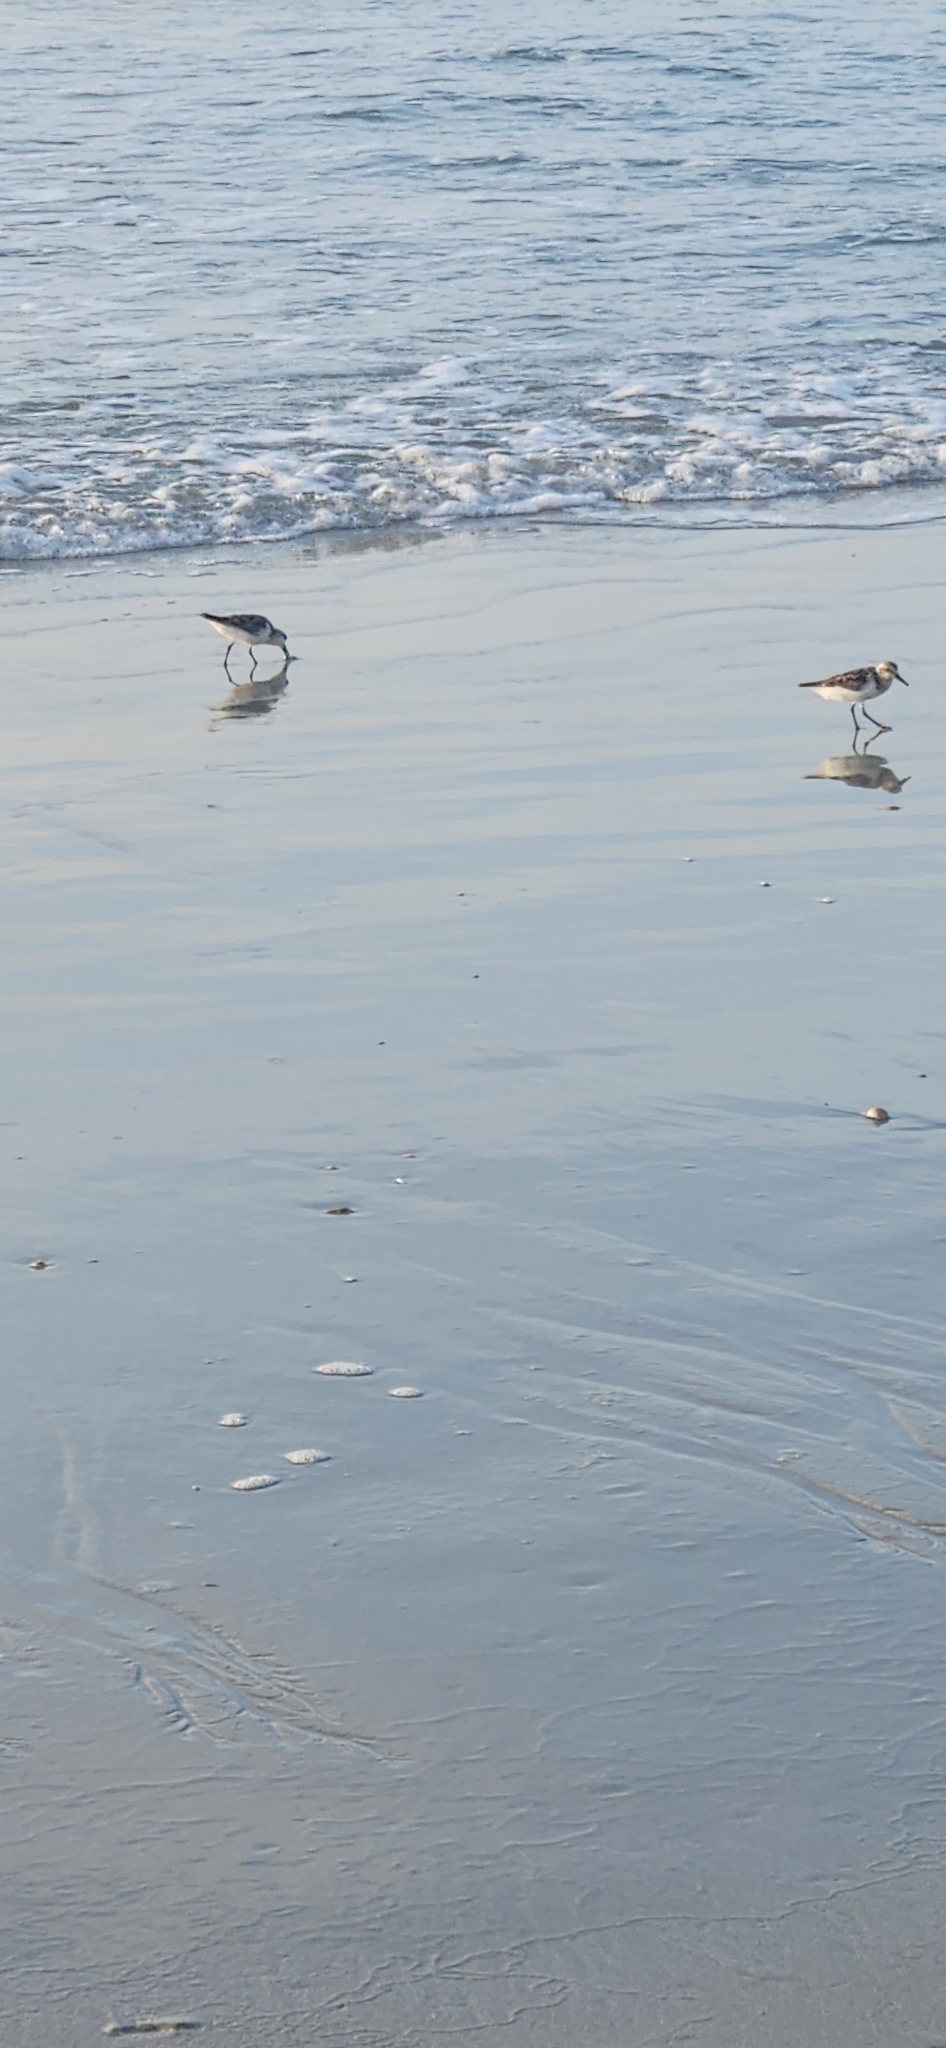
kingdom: Animalia
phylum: Chordata
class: Aves
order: Charadriiformes
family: Scolopacidae
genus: Calidris
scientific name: Calidris alba
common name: Sanderling
